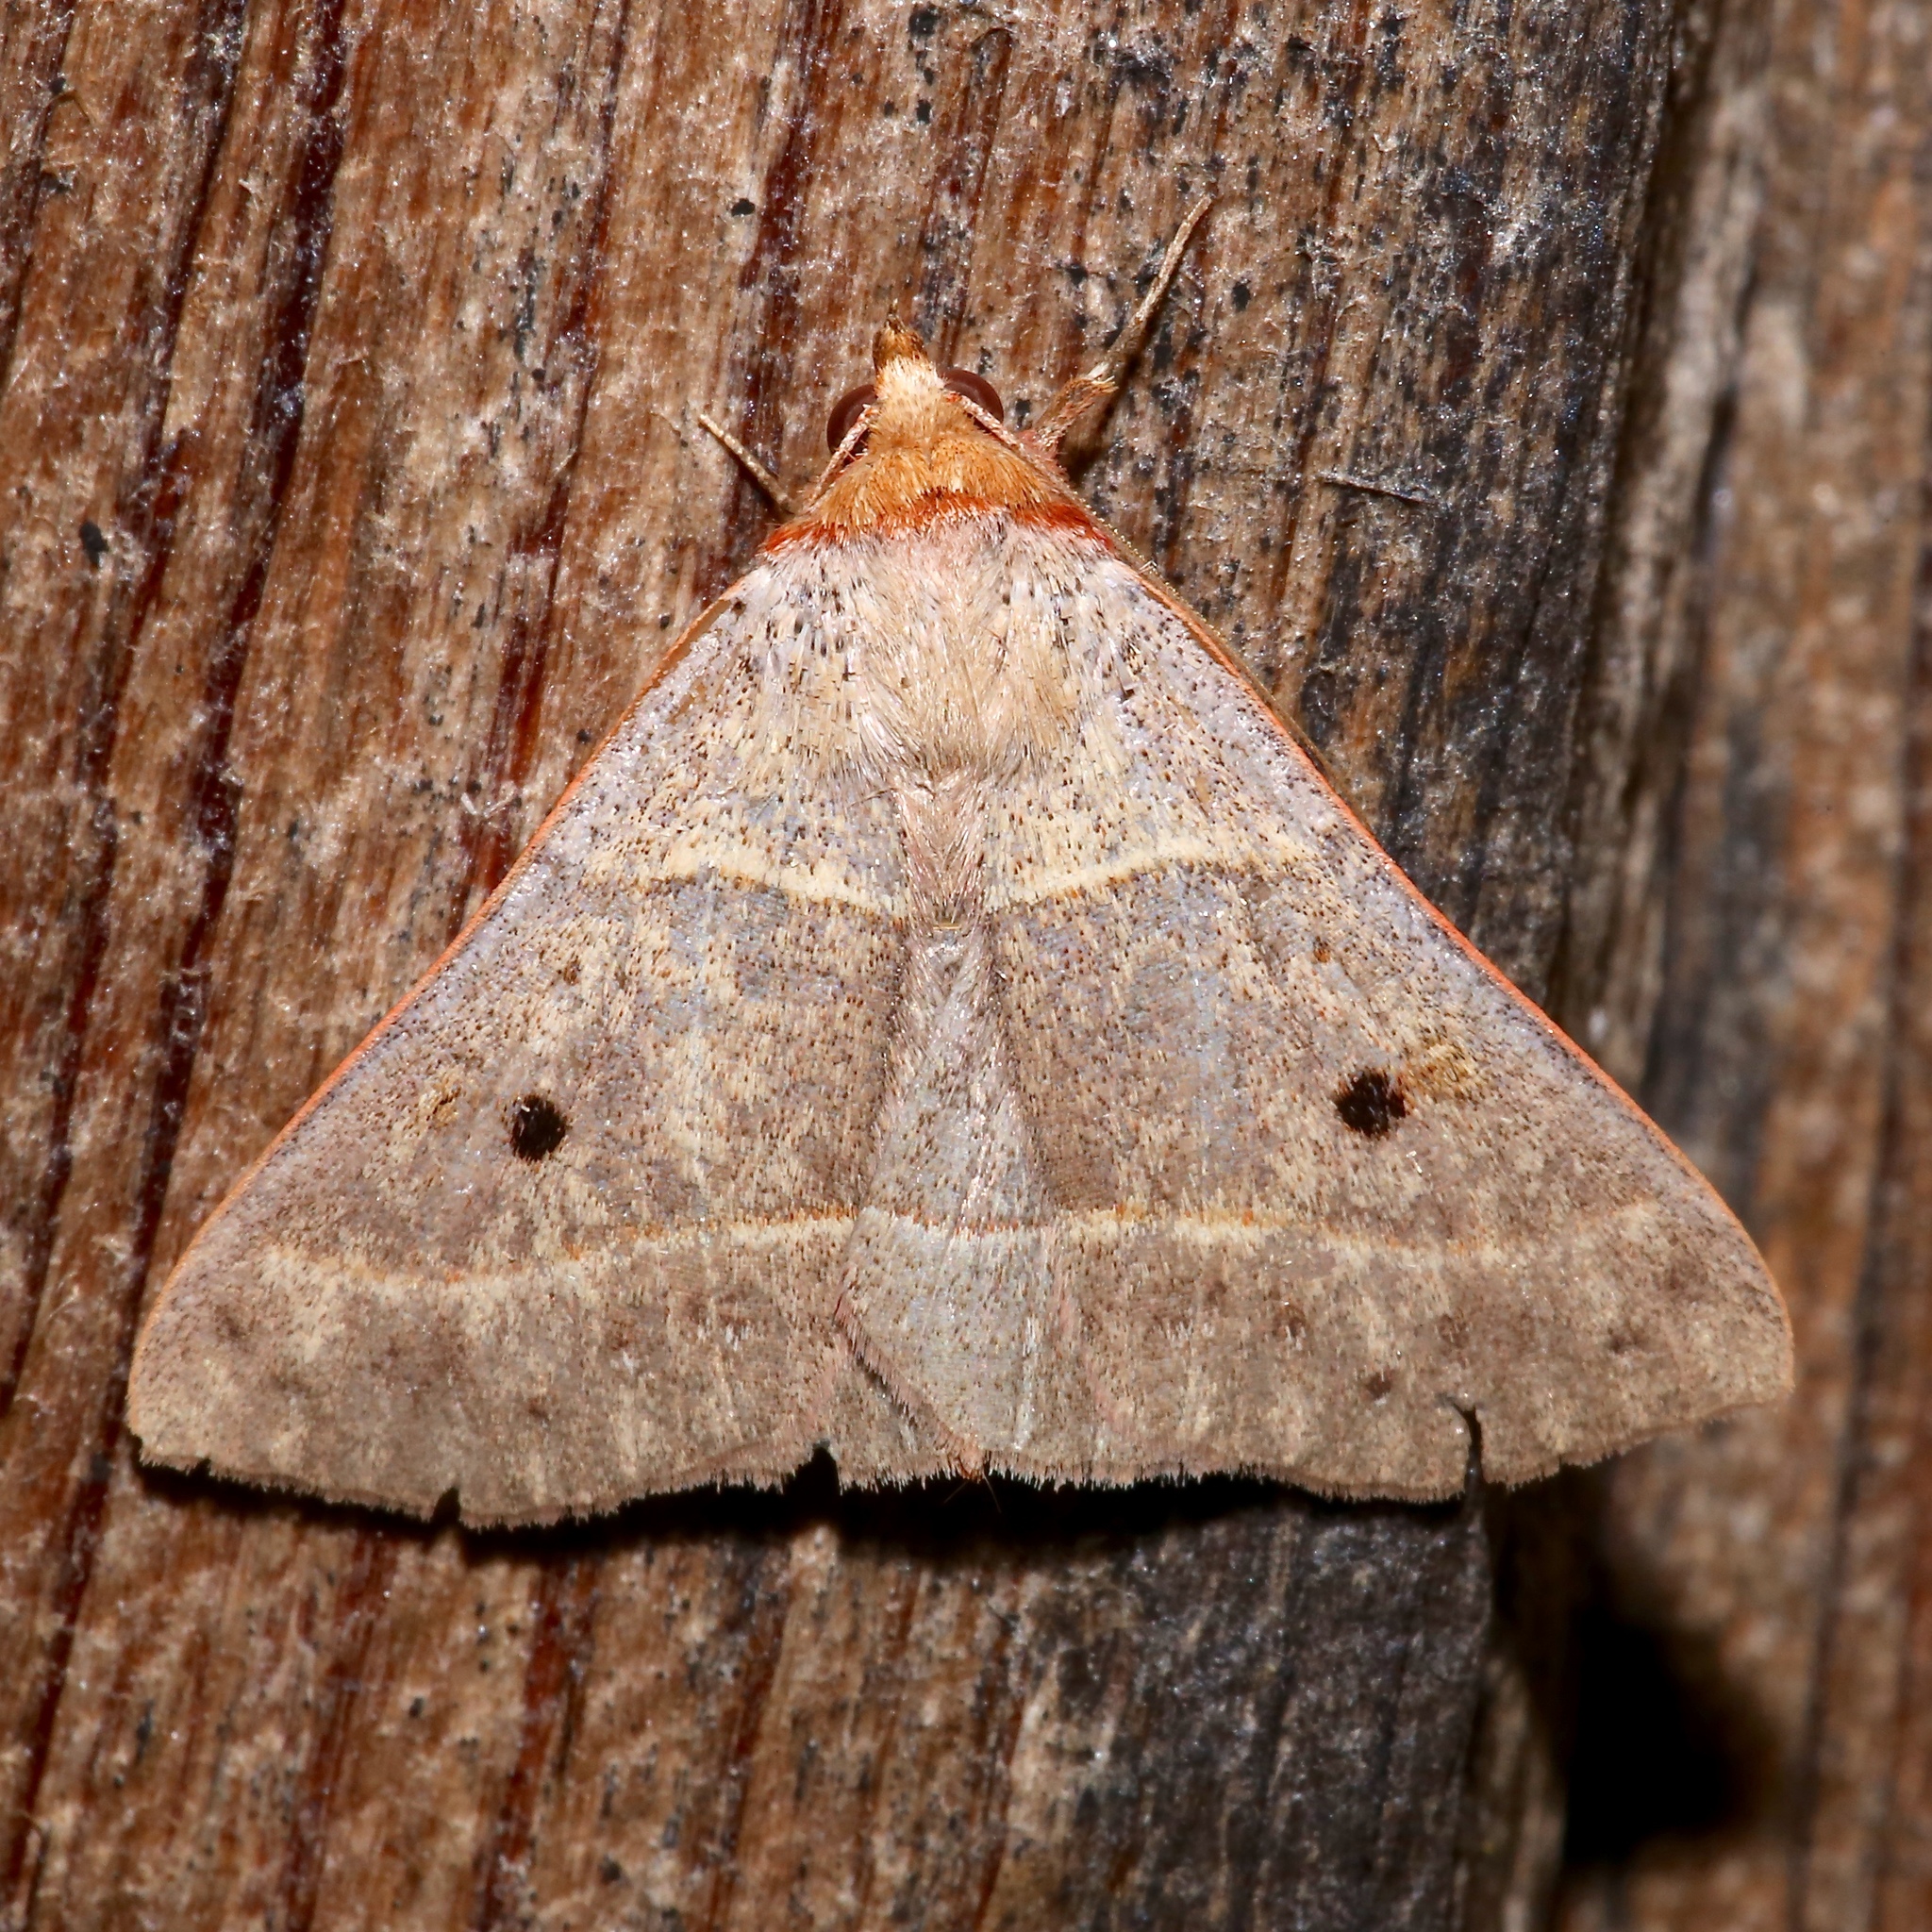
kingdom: Animalia
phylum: Arthropoda
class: Insecta
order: Lepidoptera
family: Erebidae
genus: Panopoda
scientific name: Panopoda rufimargo
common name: Red-lined panopoda moth
